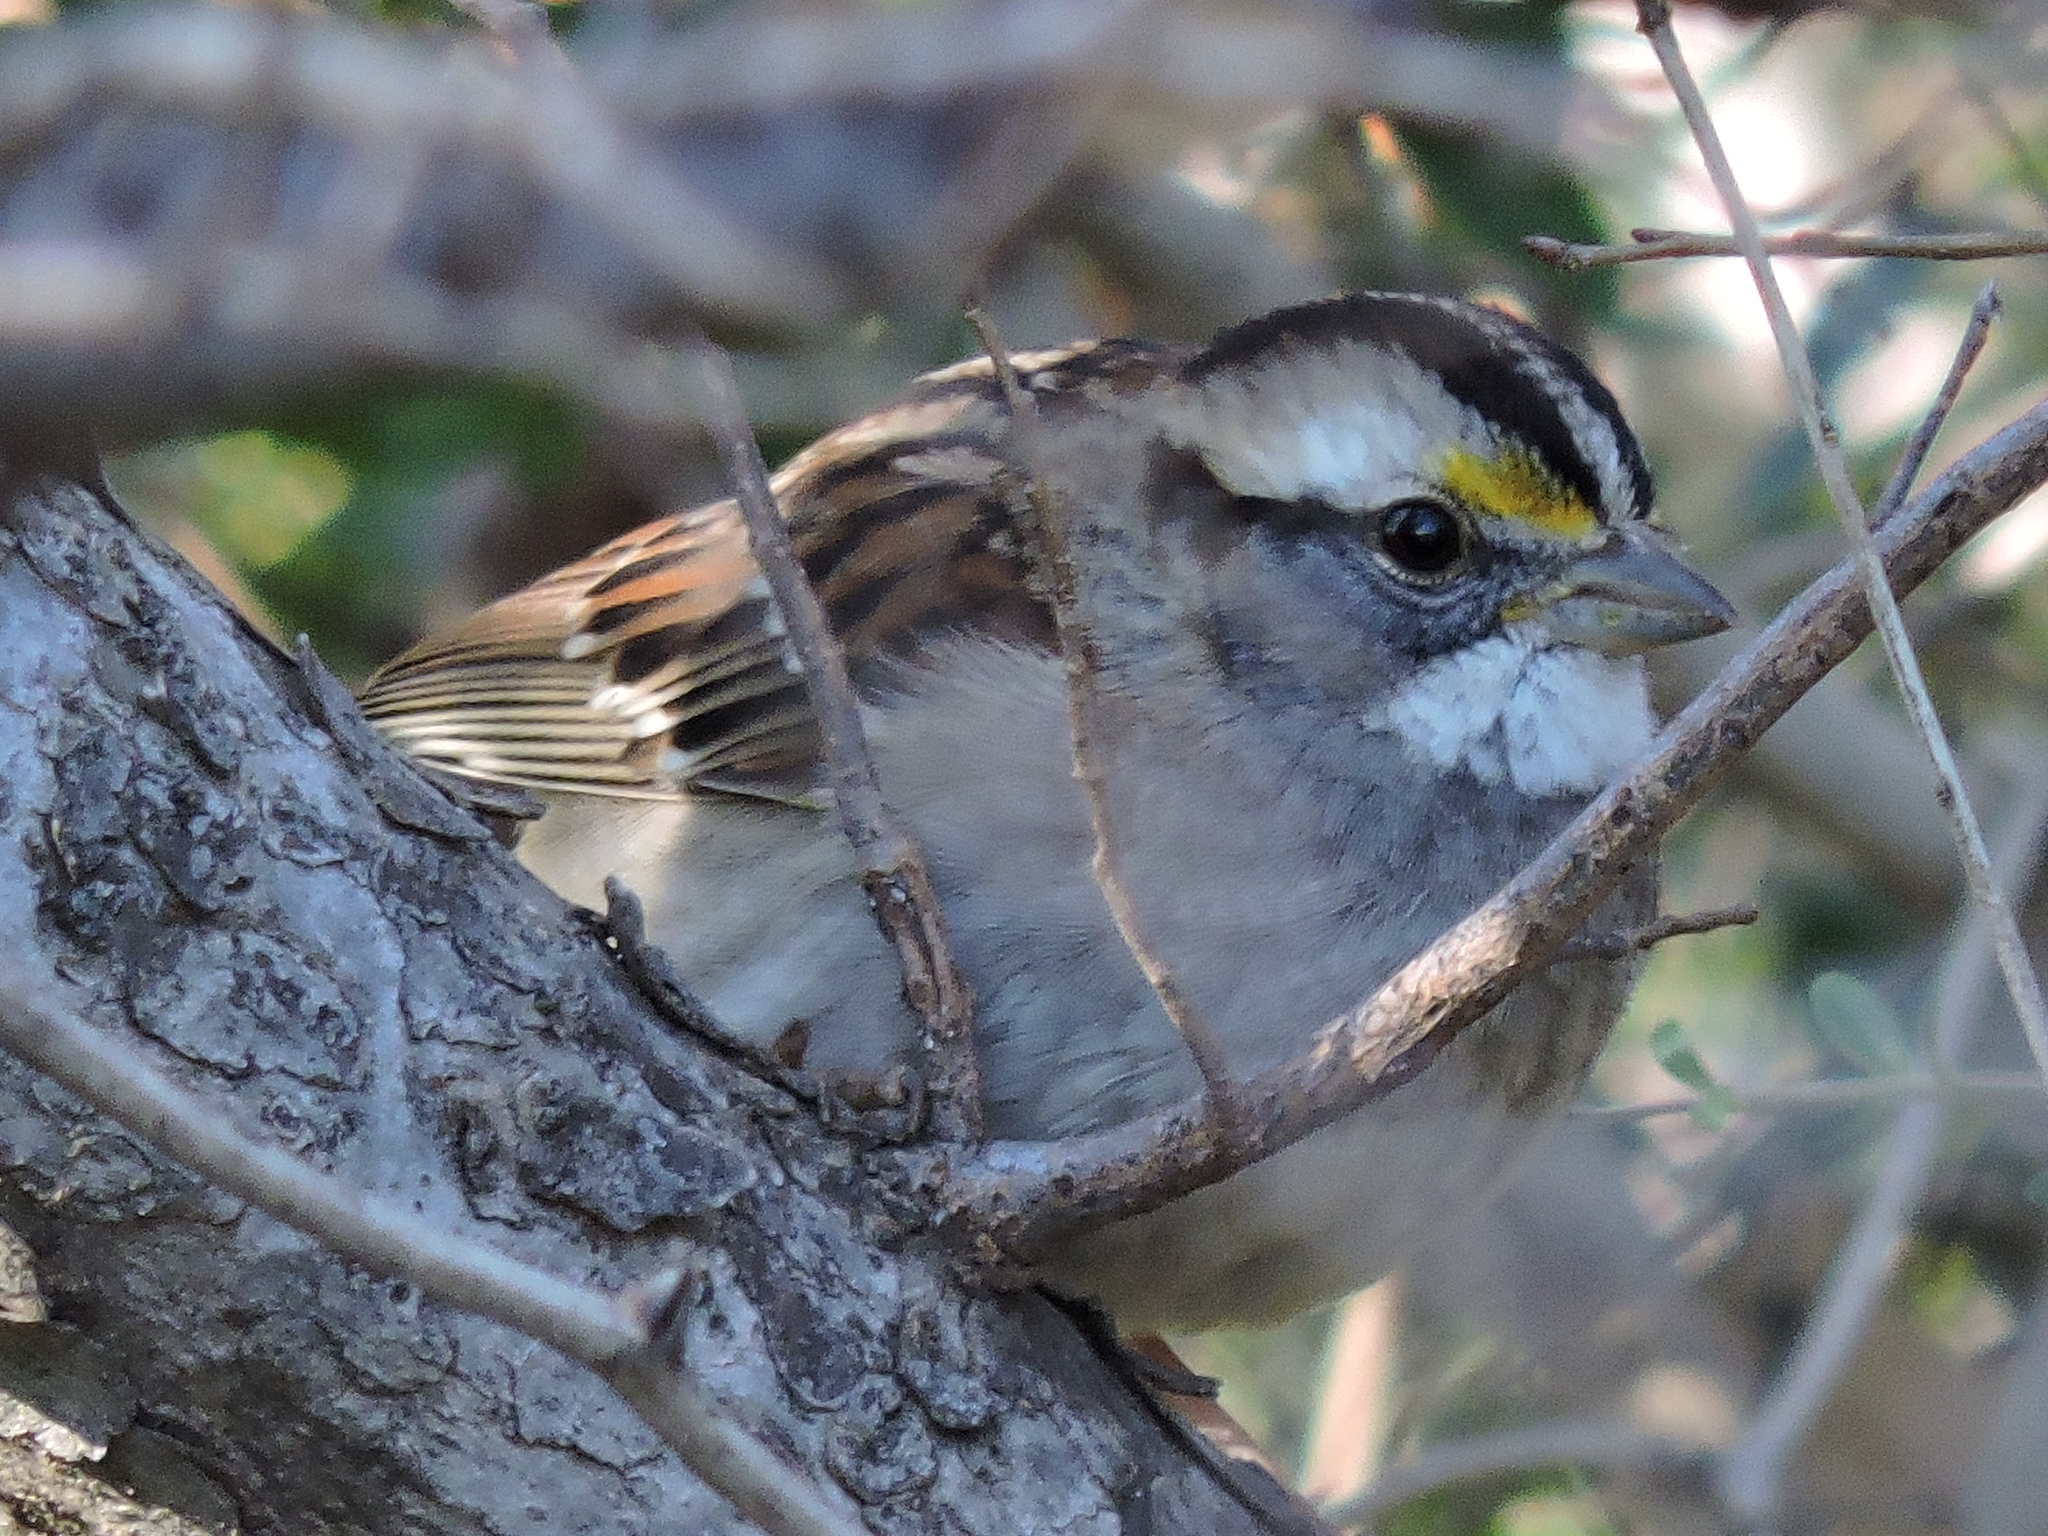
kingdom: Animalia
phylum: Chordata
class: Aves
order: Passeriformes
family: Passerellidae
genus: Zonotrichia
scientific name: Zonotrichia albicollis
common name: White-throated sparrow
